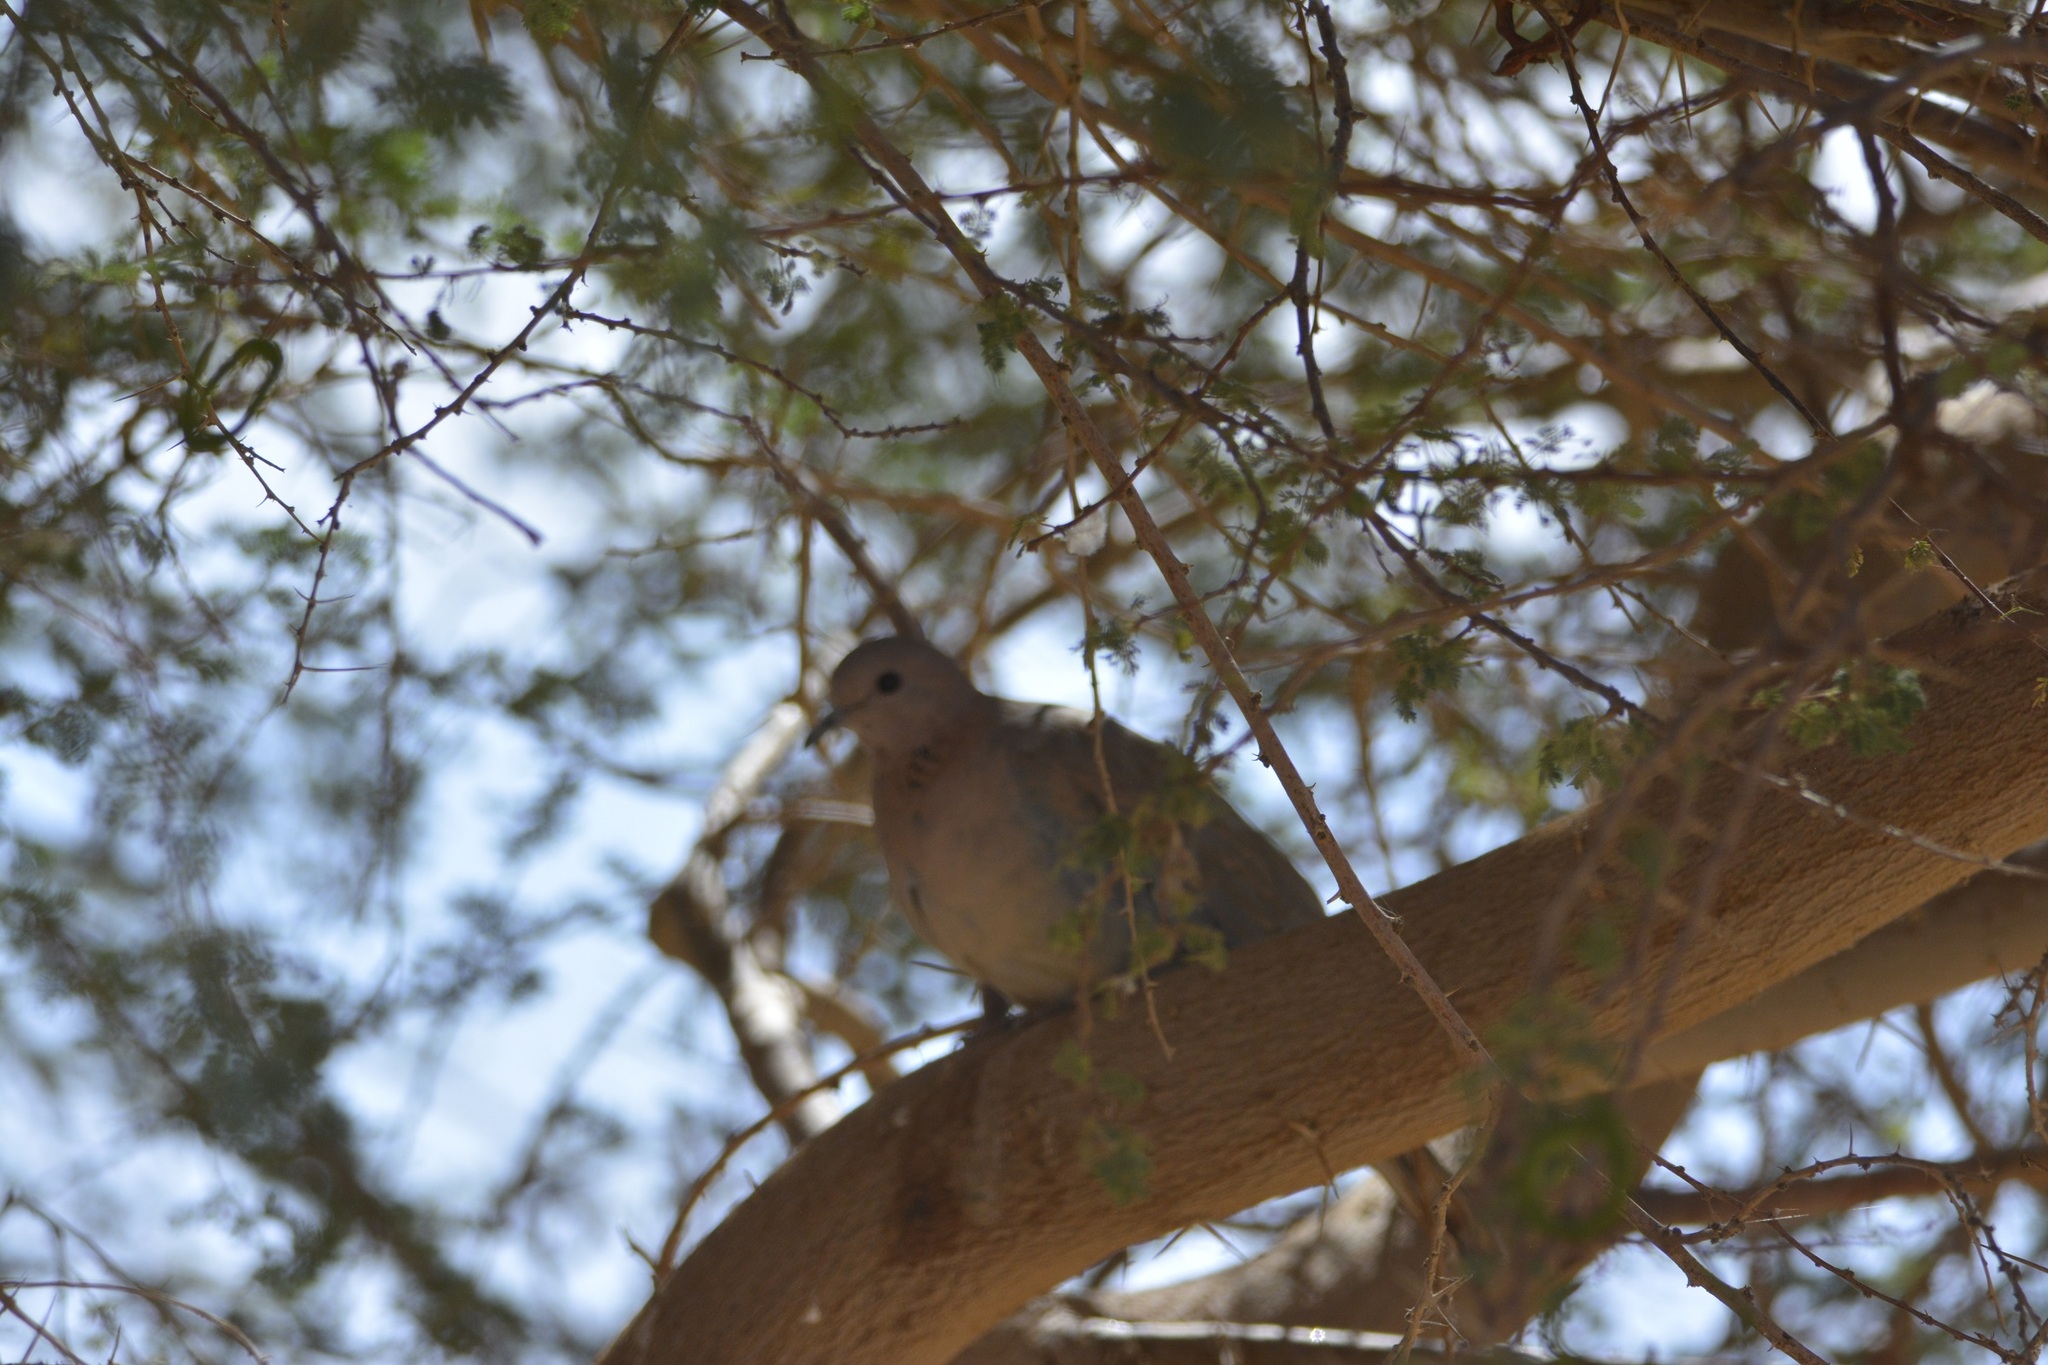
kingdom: Animalia
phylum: Chordata
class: Aves
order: Columbiformes
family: Columbidae
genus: Spilopelia
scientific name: Spilopelia senegalensis
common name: Laughing dove
